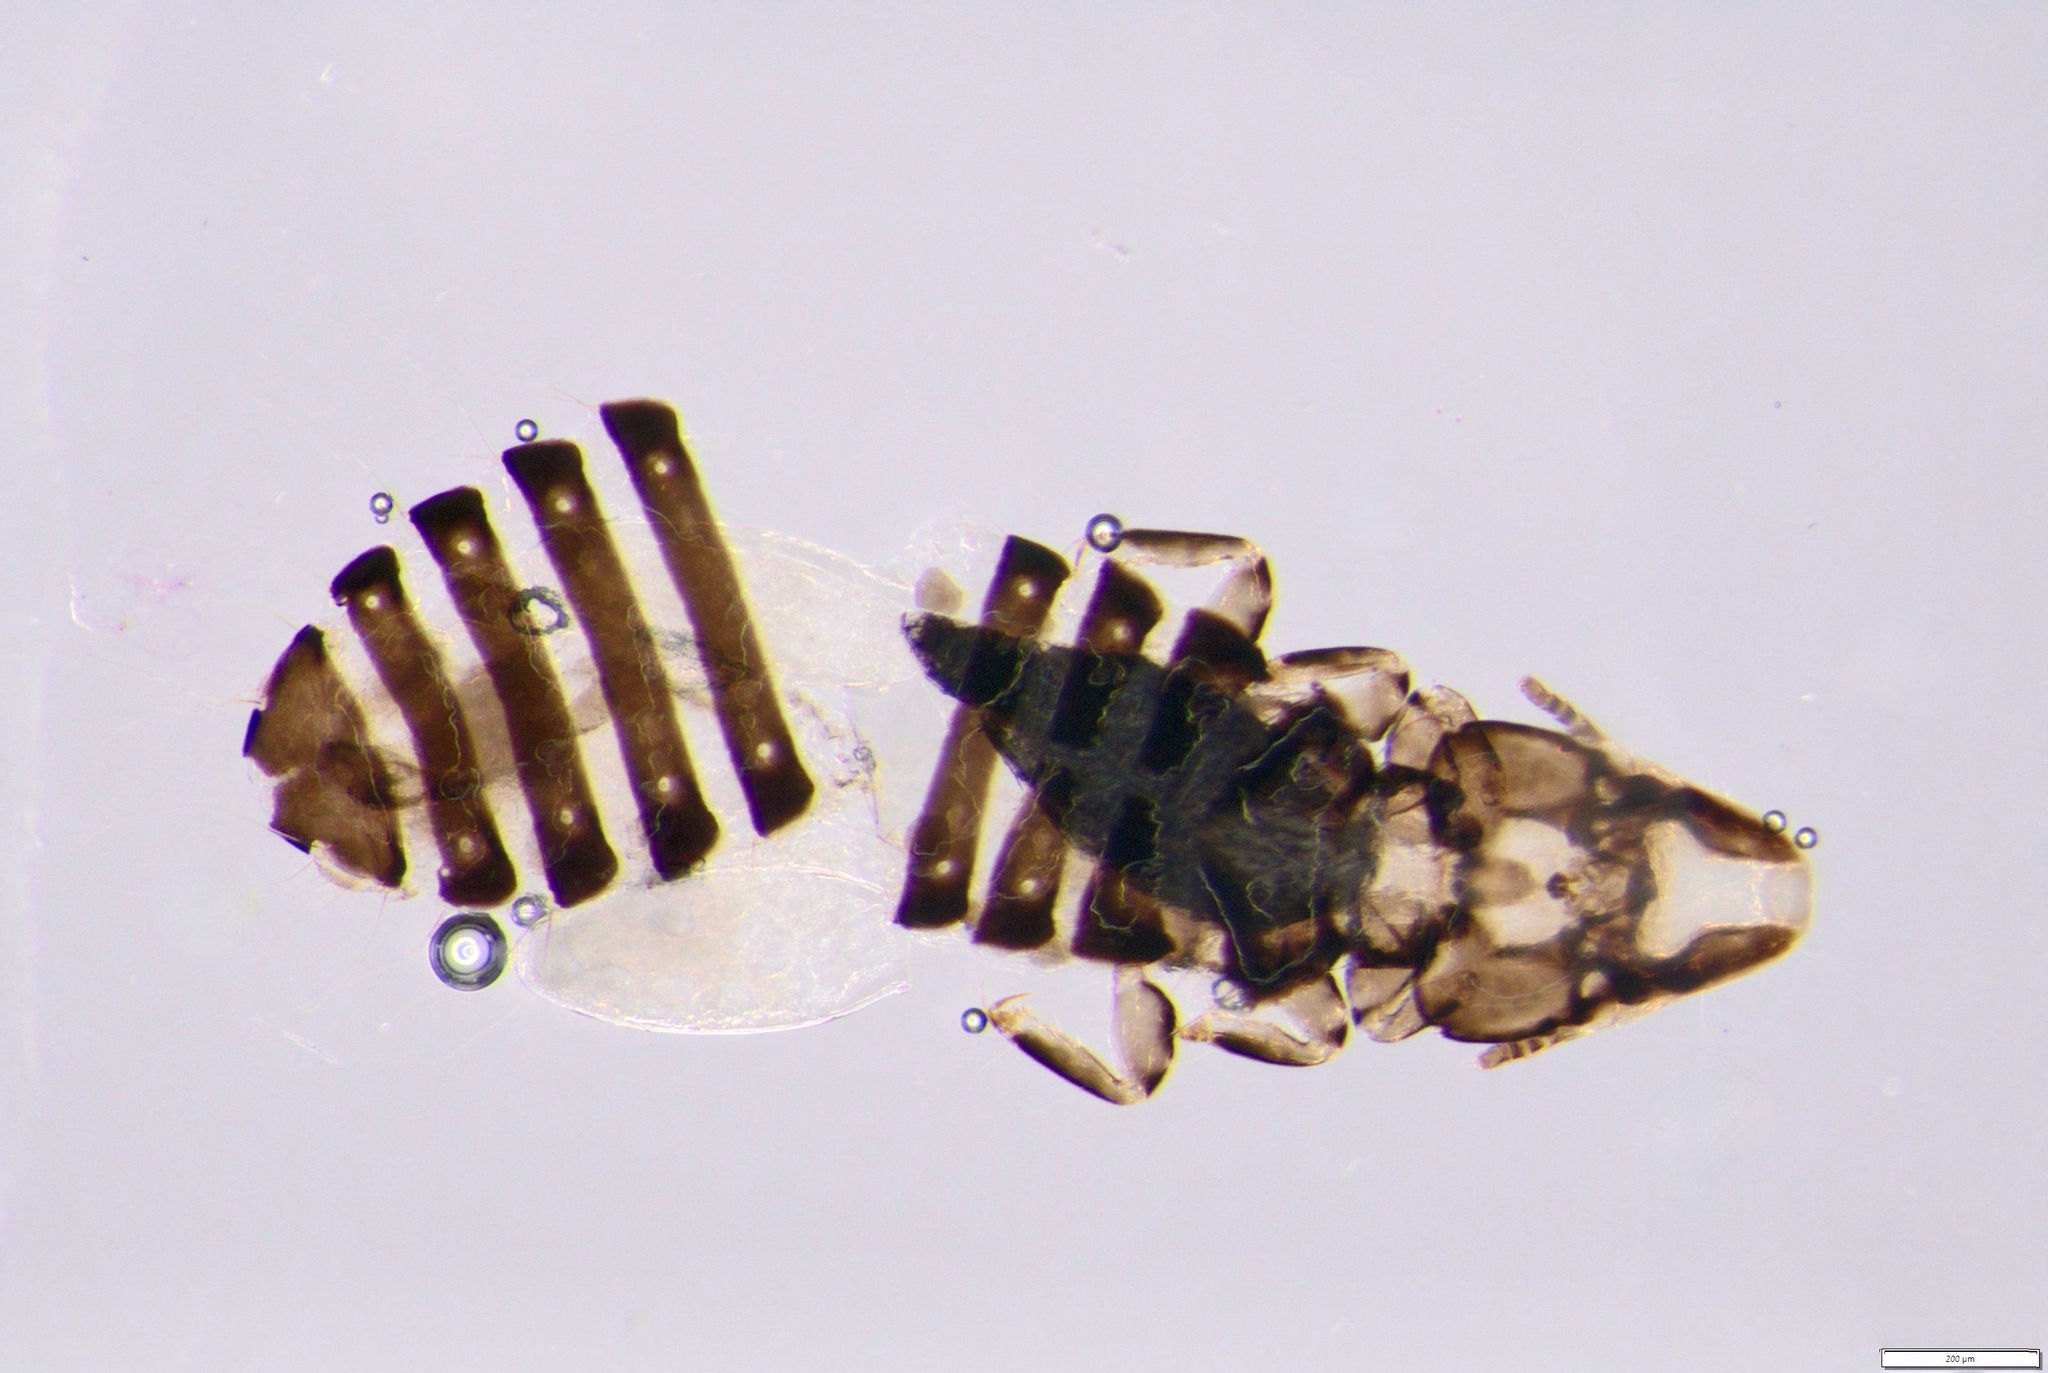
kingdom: Animalia
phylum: Arthropoda
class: Insecta
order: Psocodea
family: Philopteridae
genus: Rallicola
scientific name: Rallicola lugens
